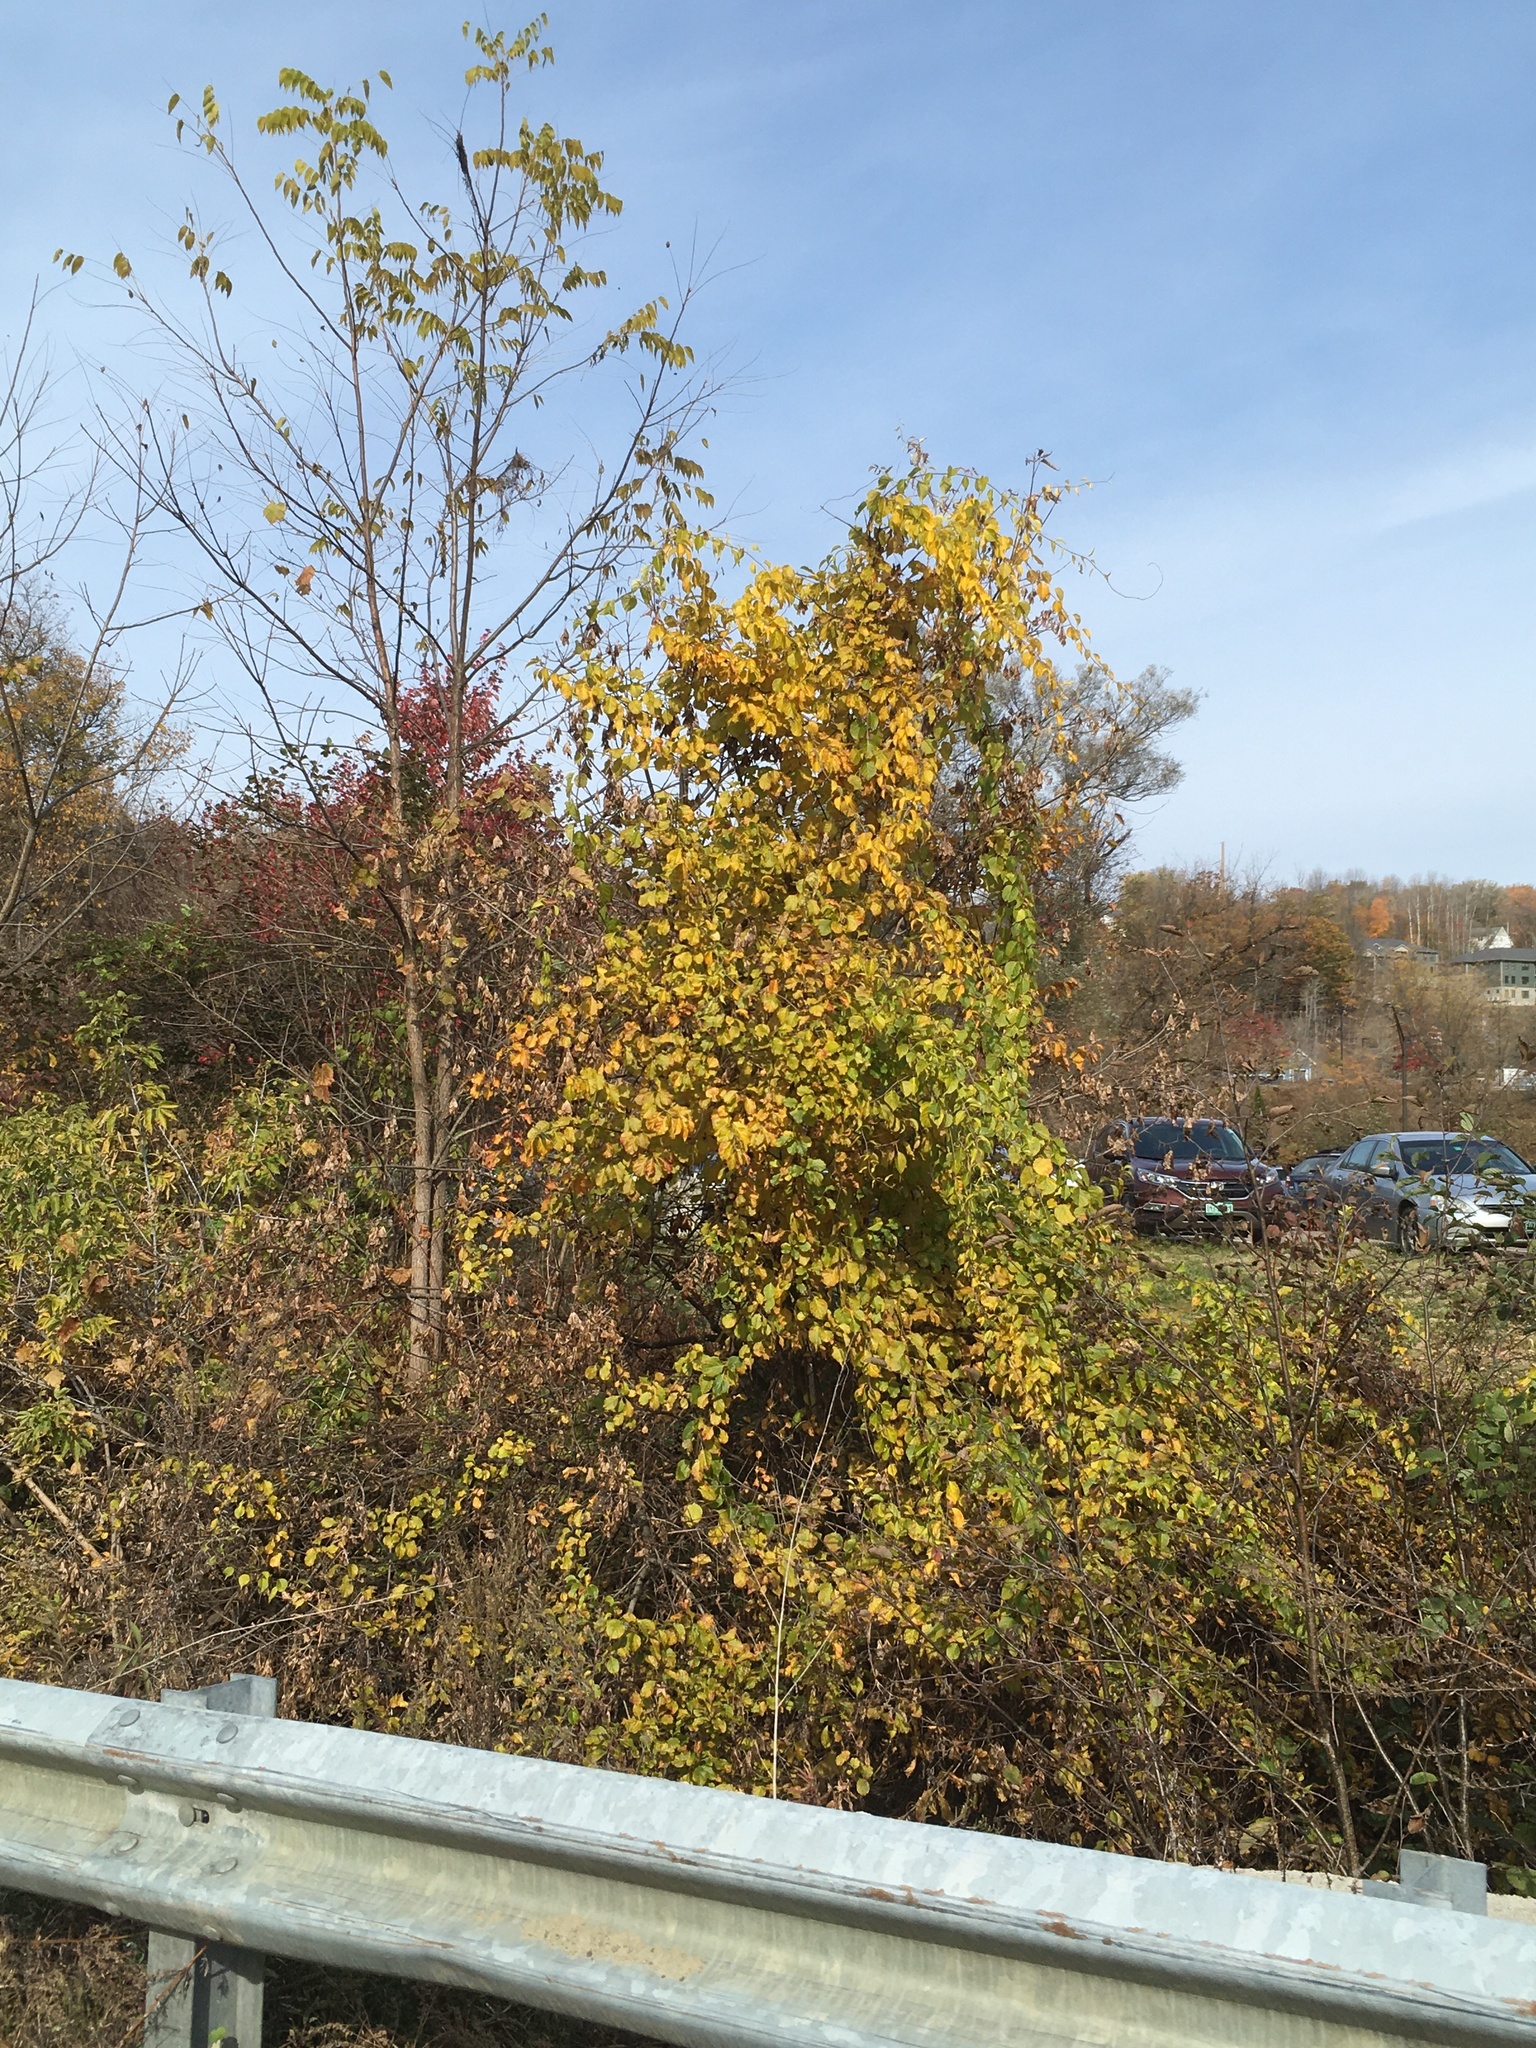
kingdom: Plantae
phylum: Tracheophyta
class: Magnoliopsida
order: Celastrales
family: Celastraceae
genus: Celastrus
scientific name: Celastrus orbiculatus
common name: Oriental bittersweet
